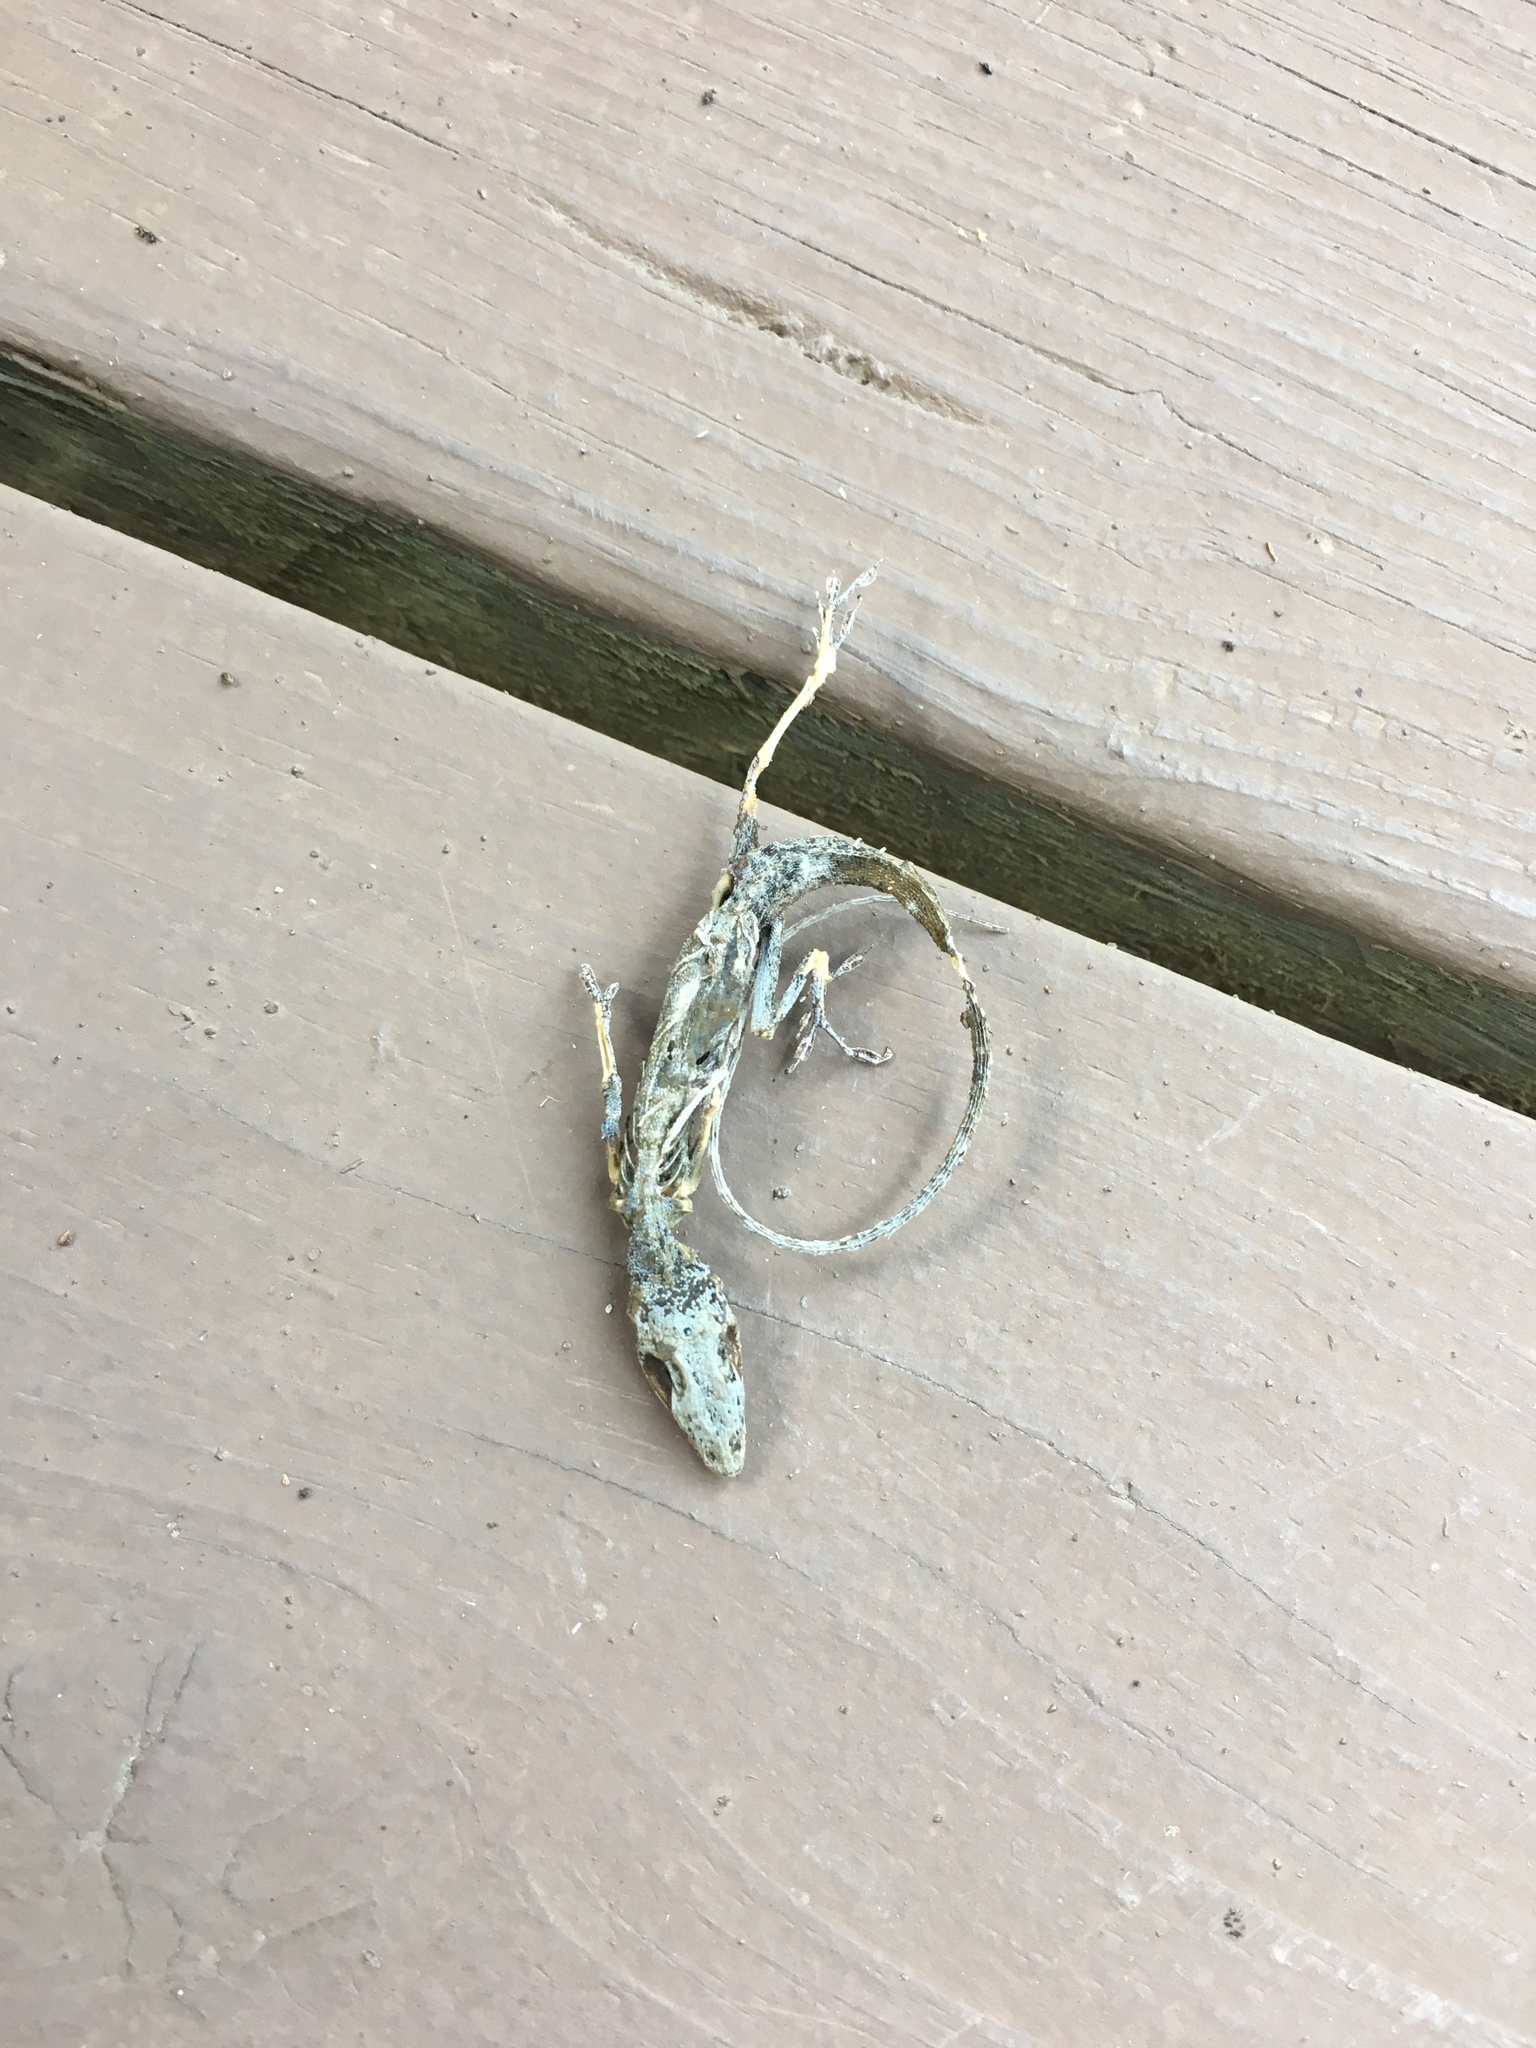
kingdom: Animalia
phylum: Chordata
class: Squamata
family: Dactyloidae
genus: Anolis
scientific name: Anolis carolinensis
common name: Green anole
